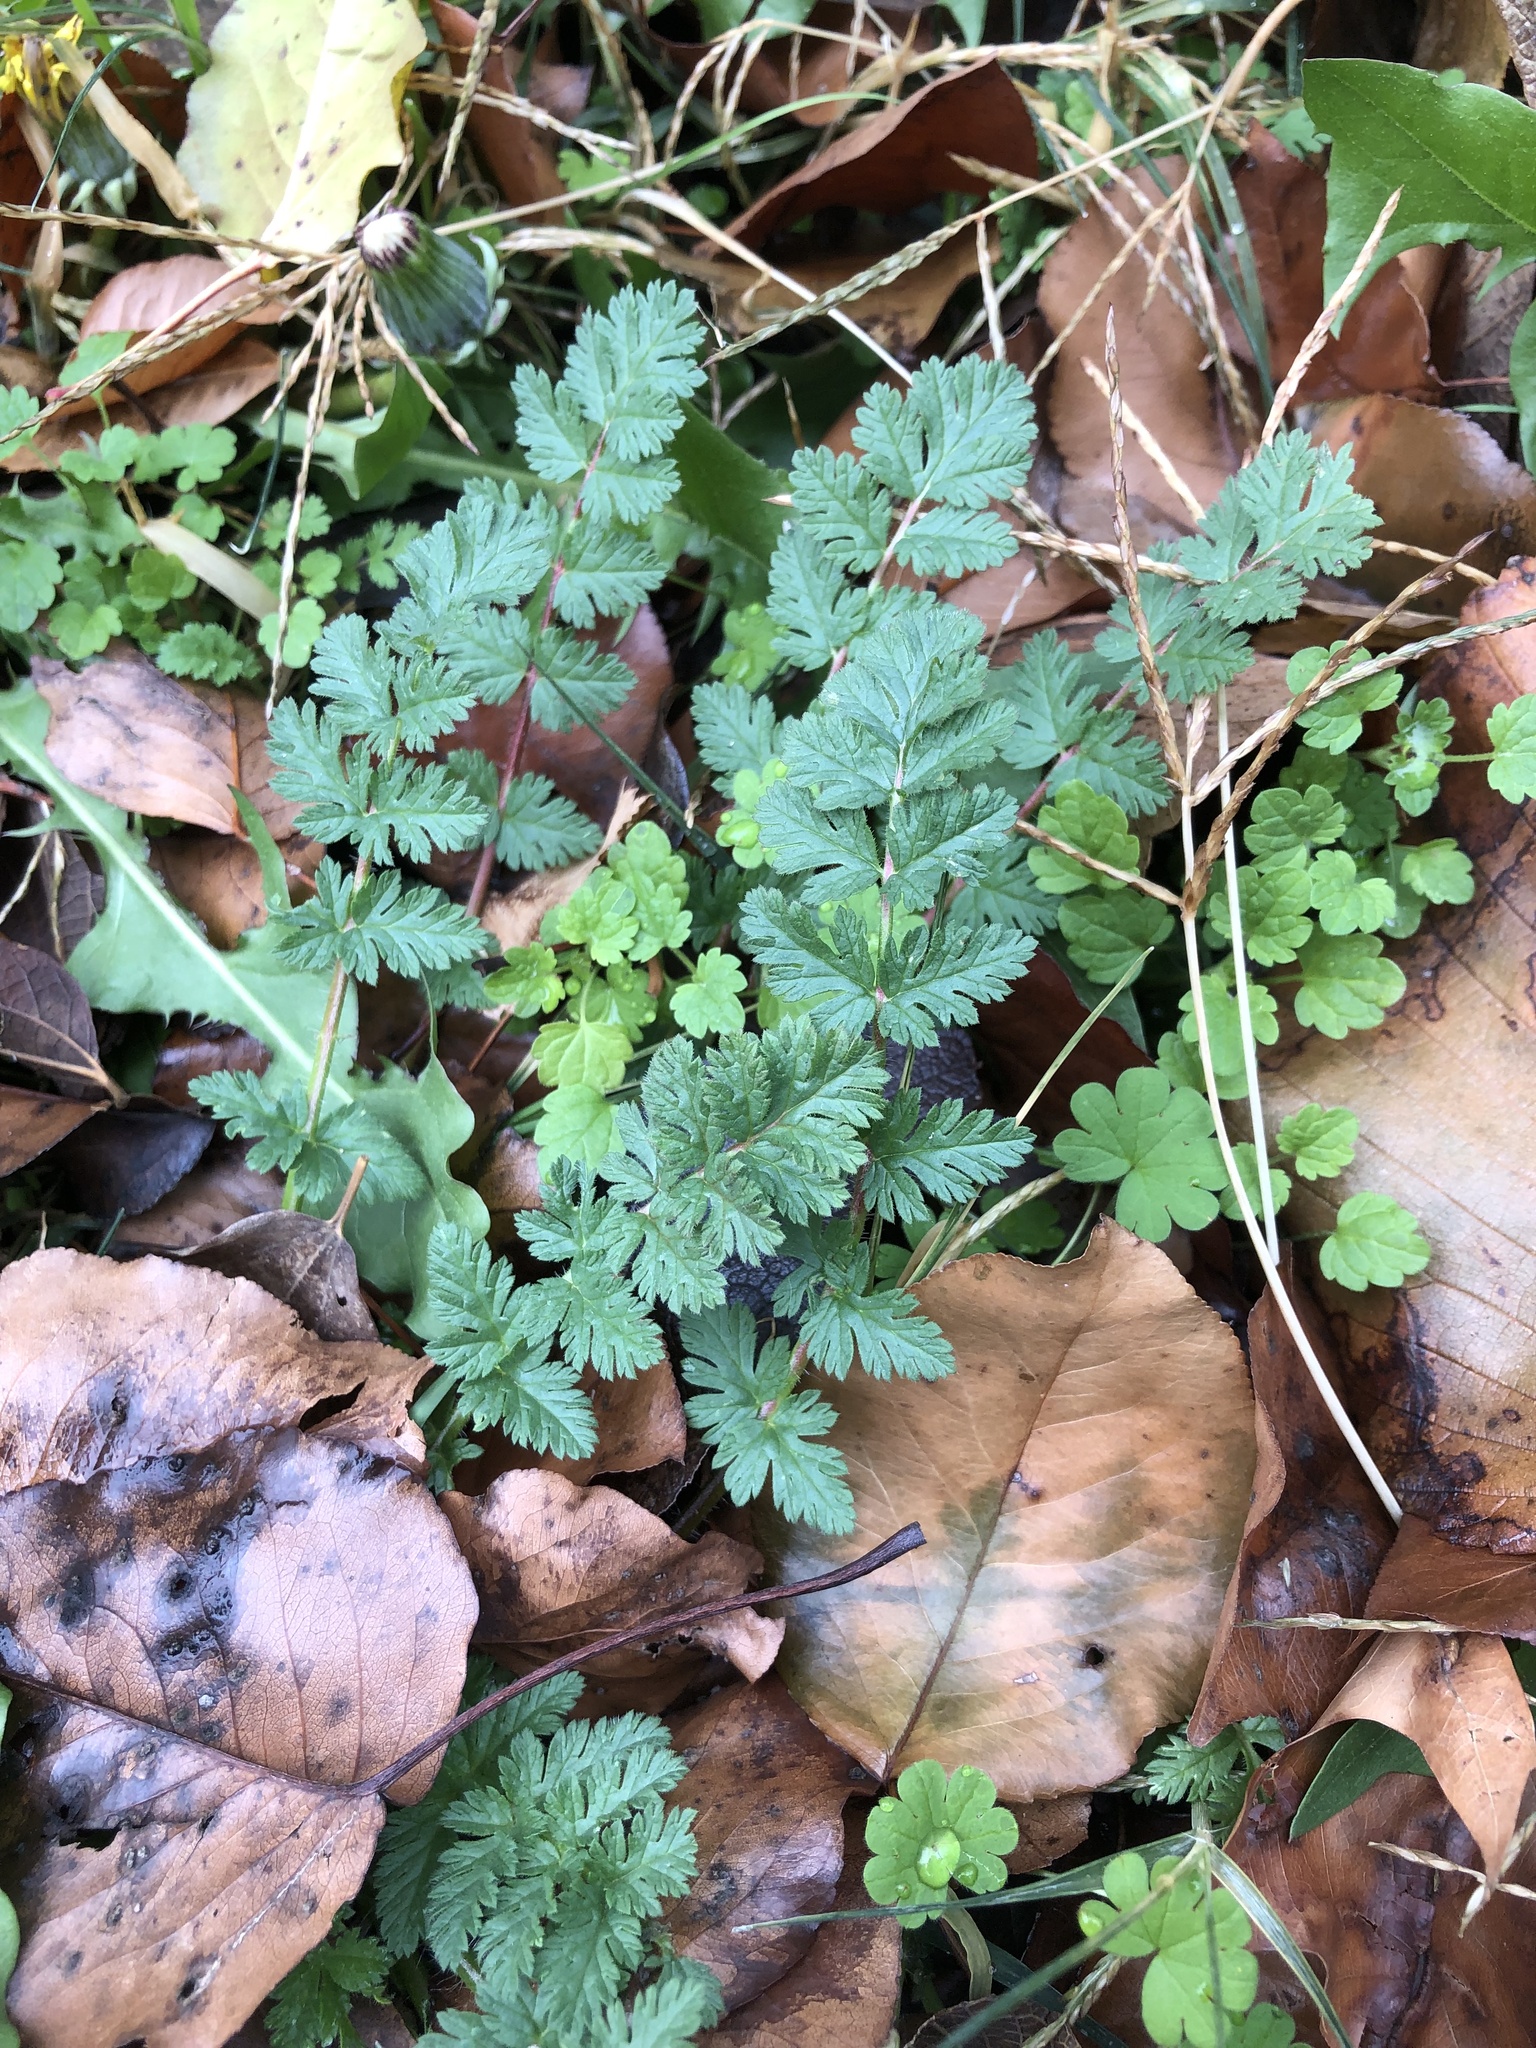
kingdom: Plantae
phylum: Tracheophyta
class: Magnoliopsida
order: Geraniales
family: Geraniaceae
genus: Erodium
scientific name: Erodium cicutarium
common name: Common stork's-bill
